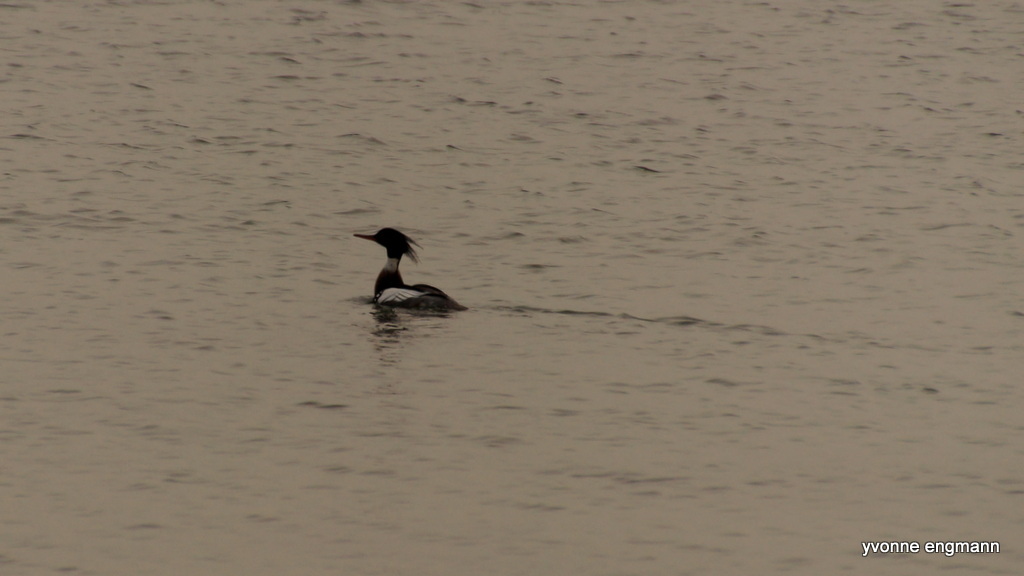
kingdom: Animalia
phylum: Chordata
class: Aves
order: Anseriformes
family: Anatidae
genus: Mergus
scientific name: Mergus serrator
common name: Red-breasted merganser
